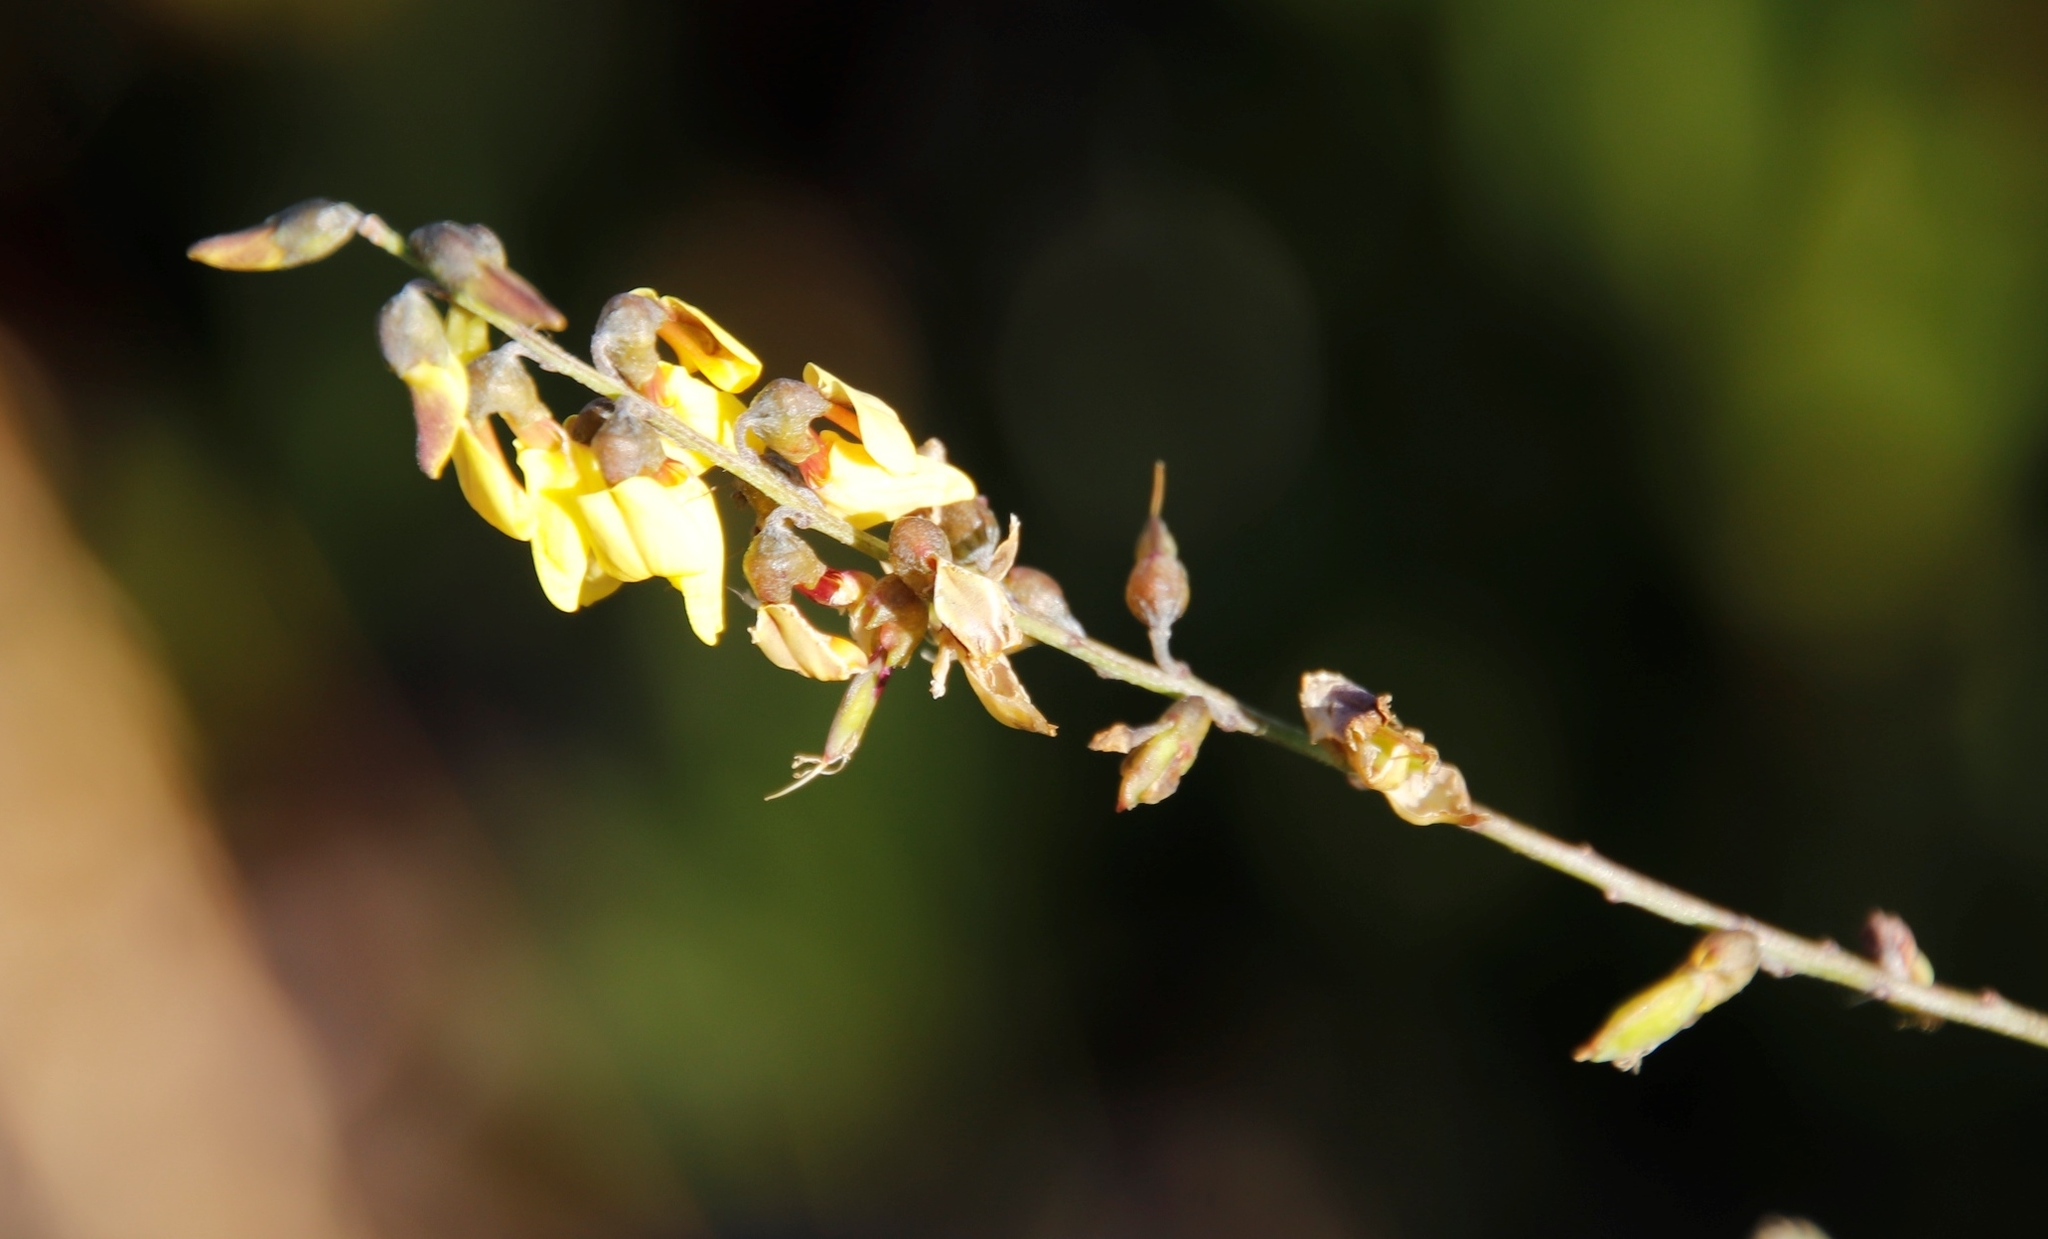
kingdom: Plantae
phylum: Tracheophyta
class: Magnoliopsida
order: Fabales
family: Fabaceae
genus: Wiborgia
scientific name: Wiborgia obcordata
